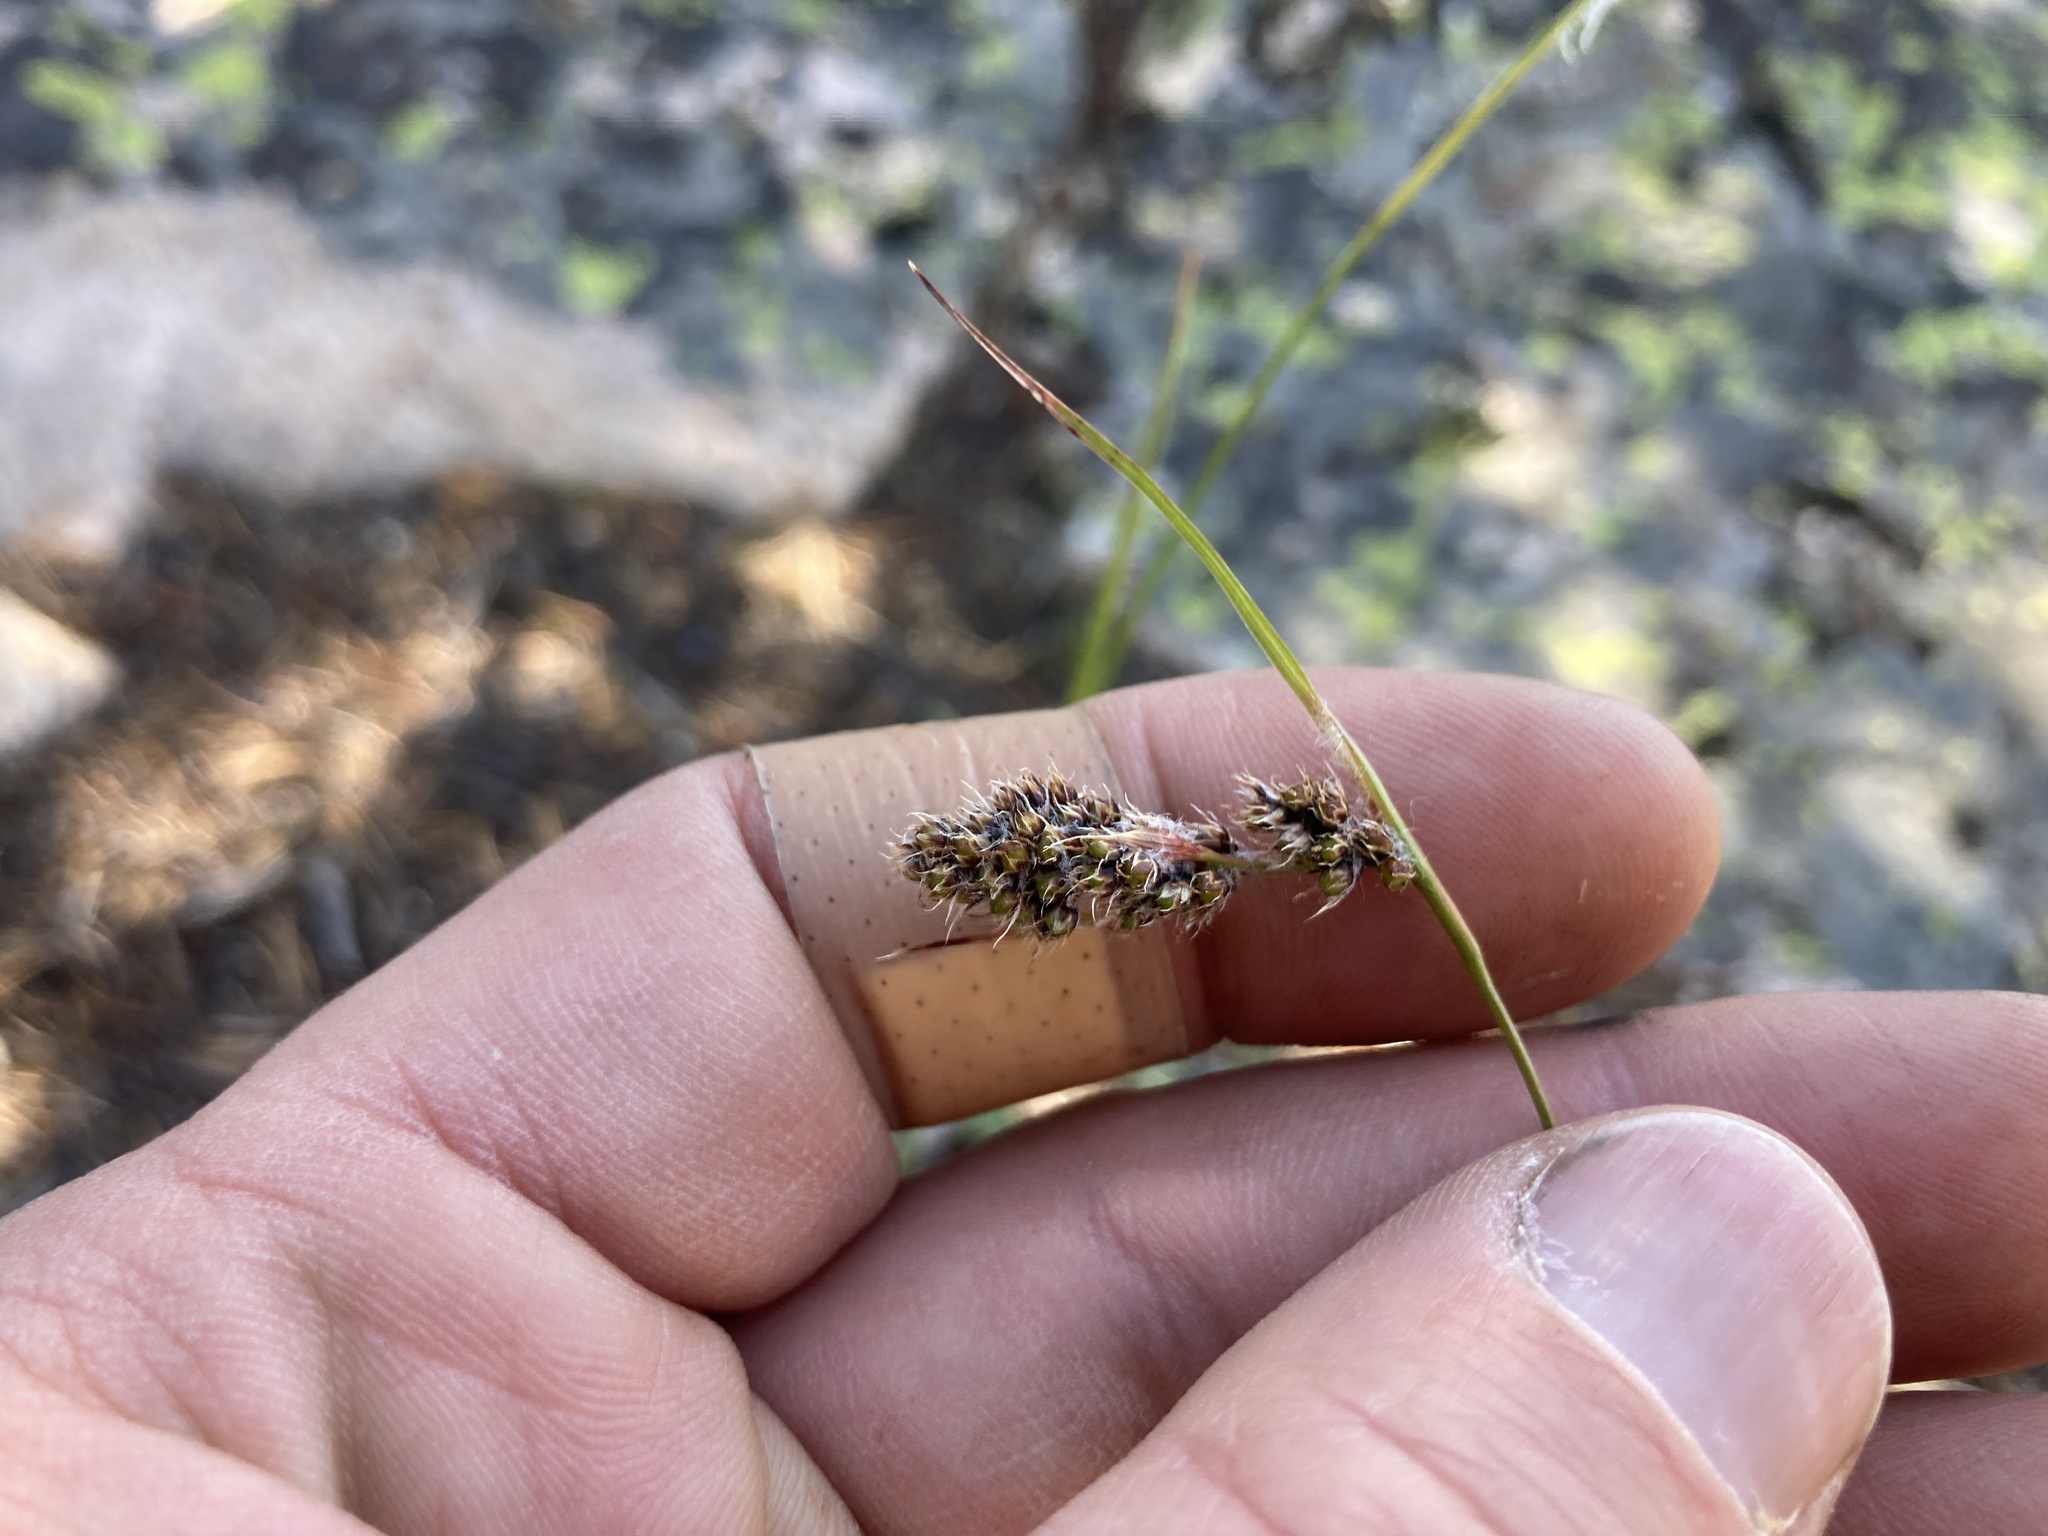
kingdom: Plantae
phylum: Tracheophyta
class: Liliopsida
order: Poales
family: Juncaceae
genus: Luzula
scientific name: Luzula spicata
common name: Spiked wood-rush
